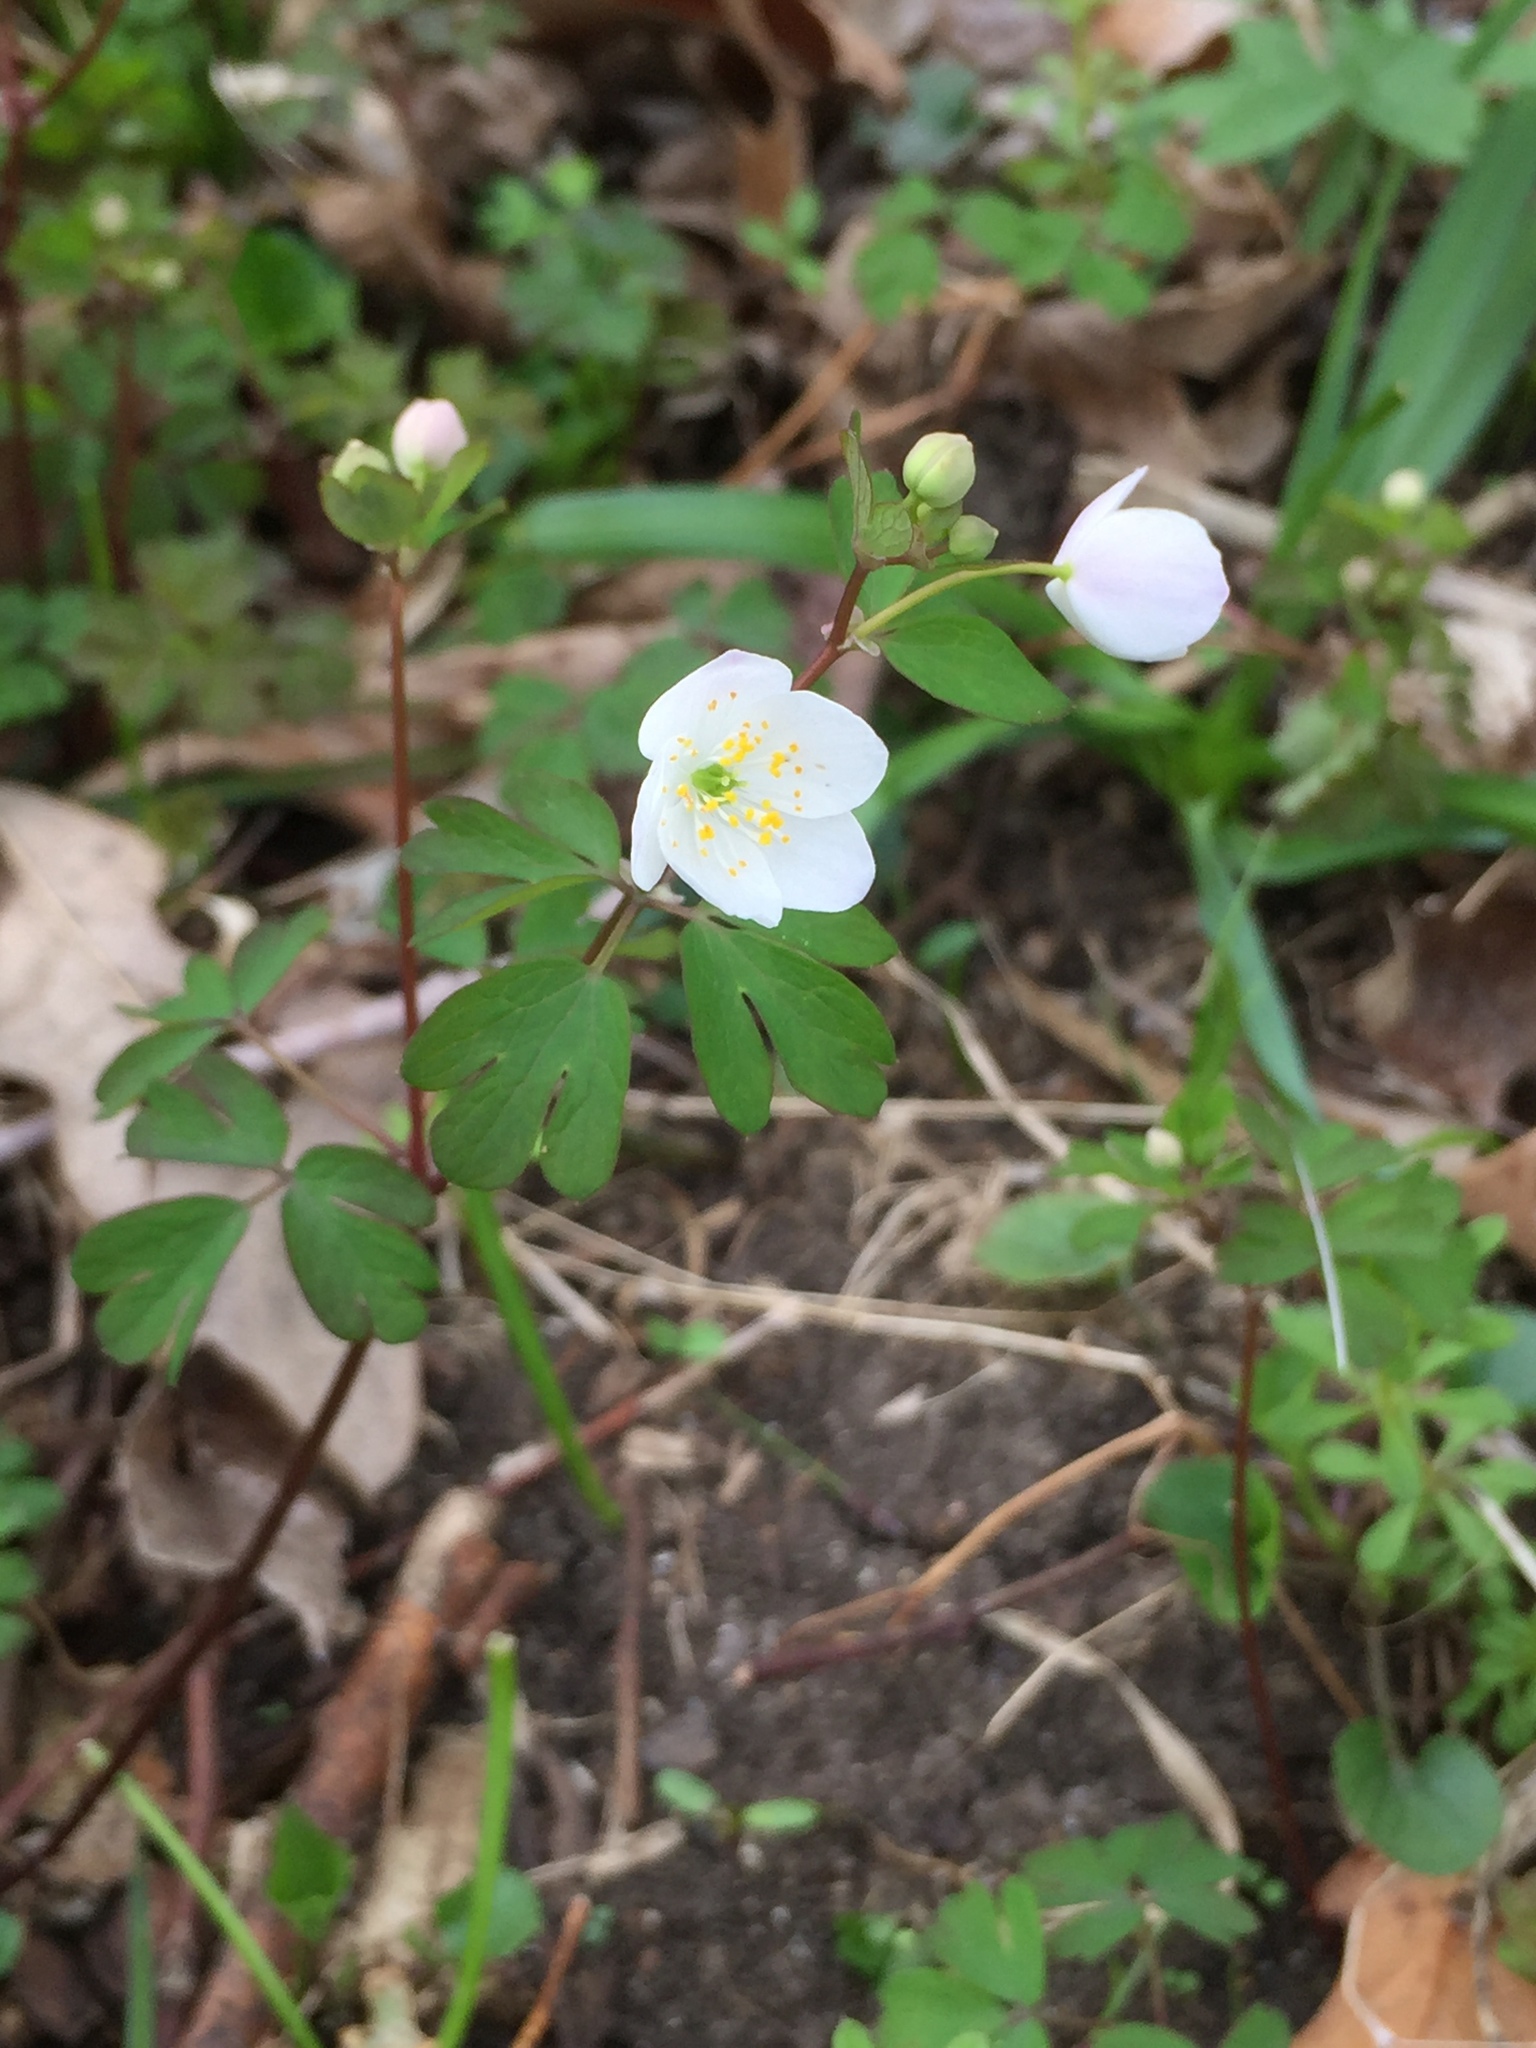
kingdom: Plantae
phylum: Tracheophyta
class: Magnoliopsida
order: Ranunculales
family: Ranunculaceae
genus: Enemion
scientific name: Enemion biternatum
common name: Eastern false rue-anemone
